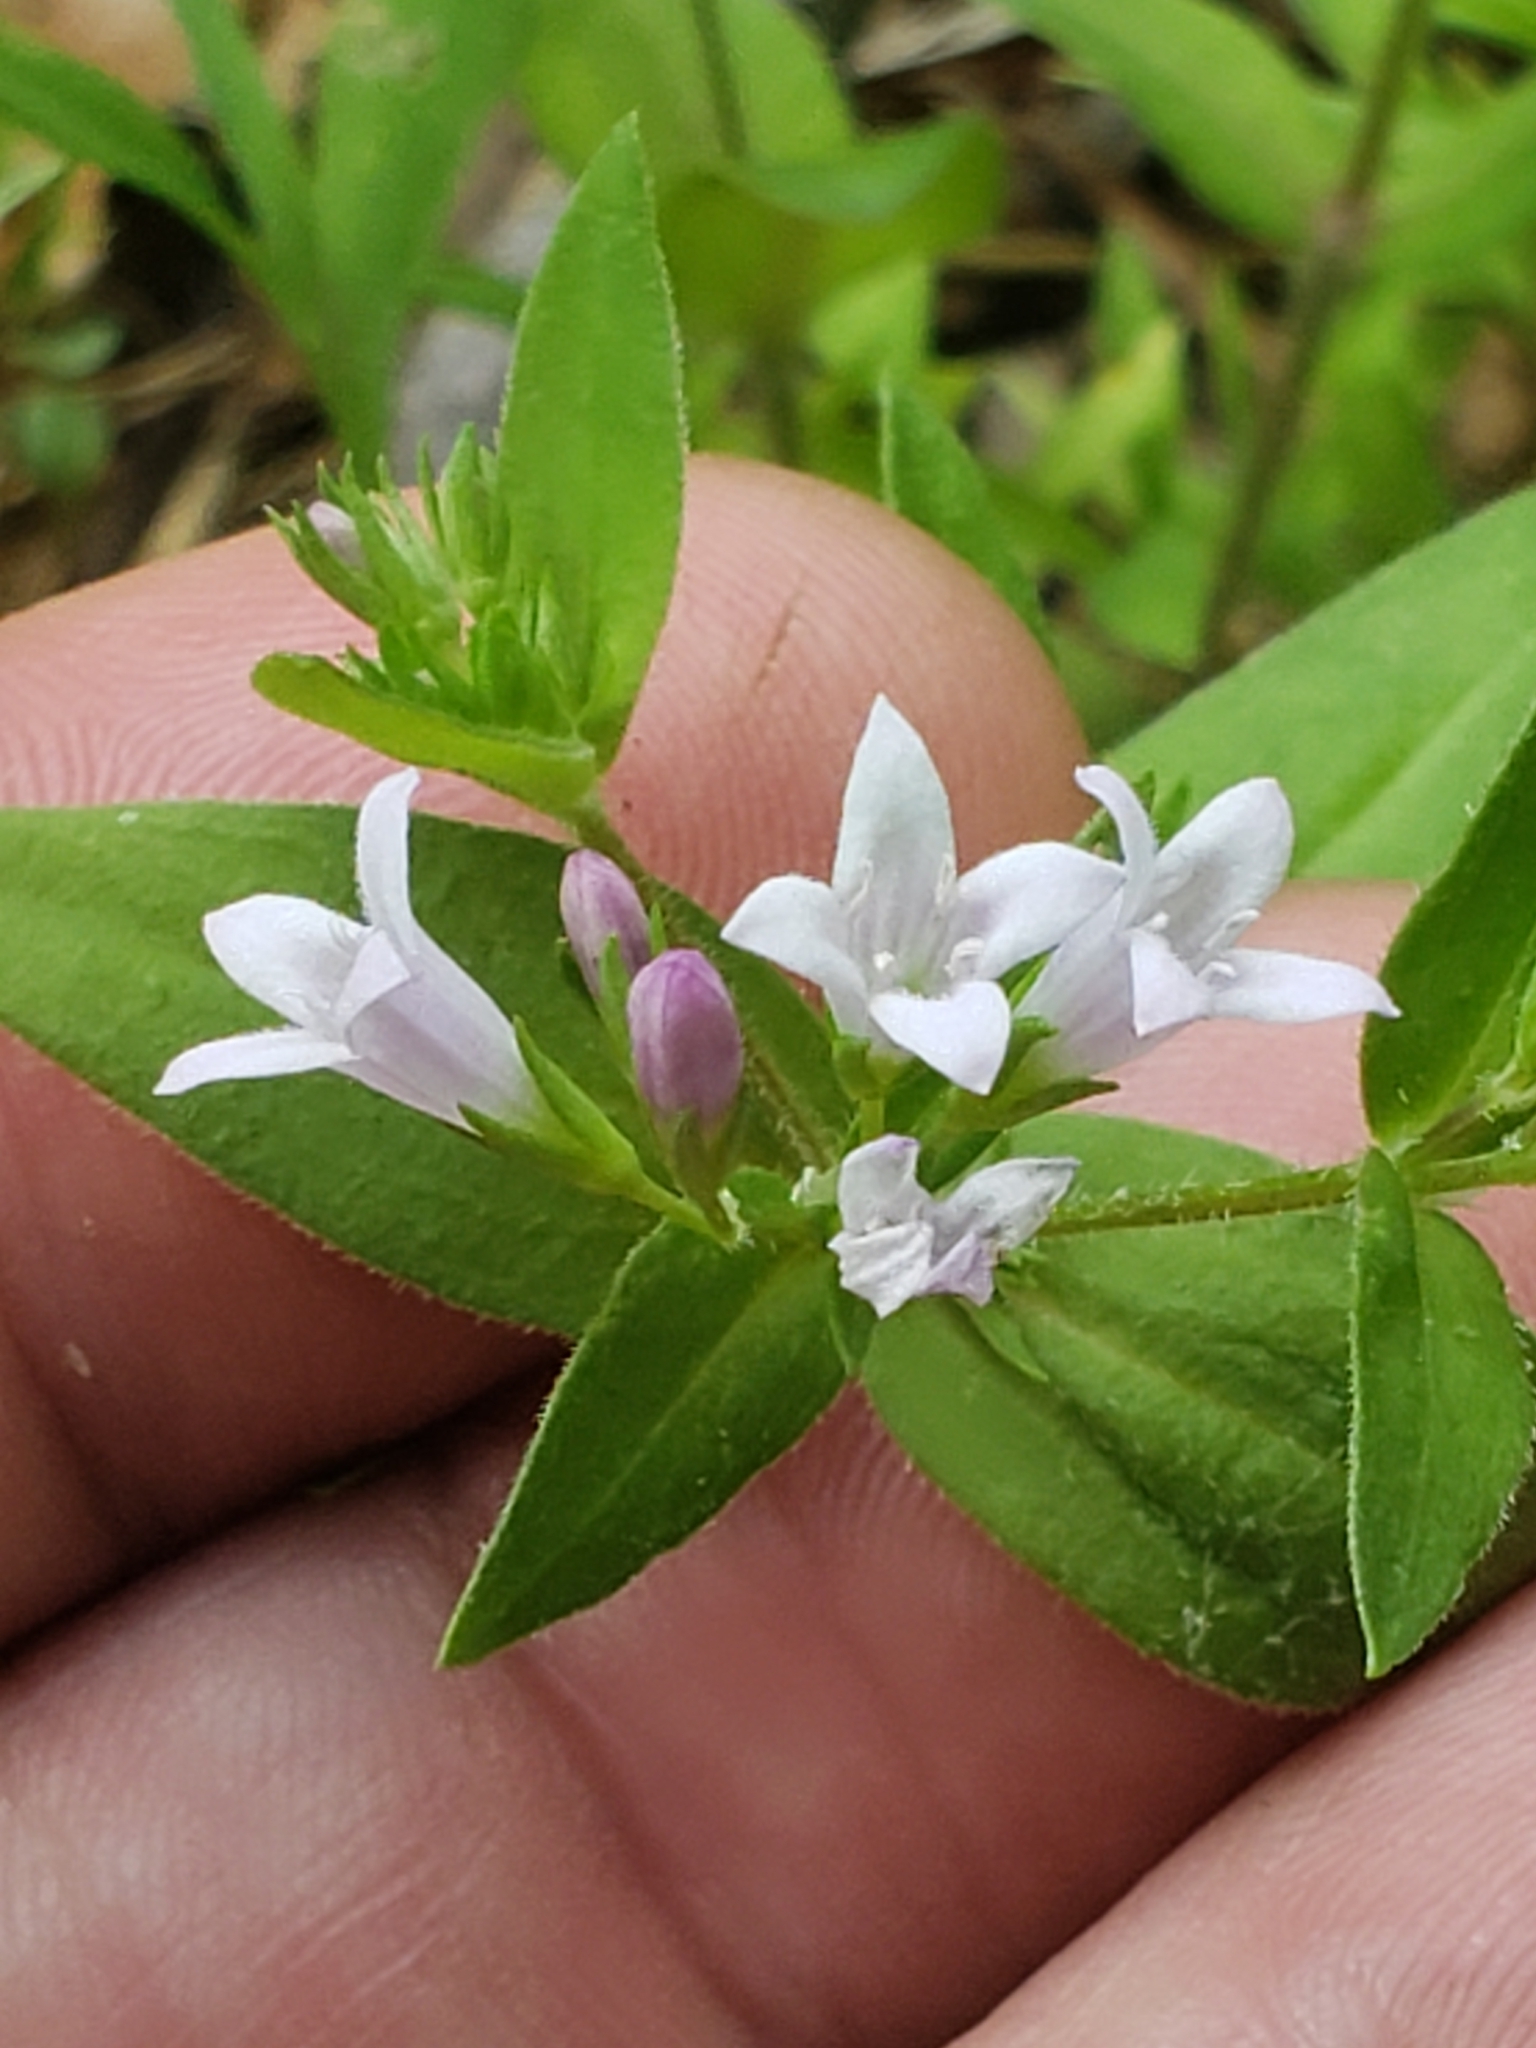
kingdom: Plantae
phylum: Tracheophyta
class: Magnoliopsida
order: Gentianales
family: Rubiaceae
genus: Houstonia
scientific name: Houstonia purpurea
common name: Summer bluet
